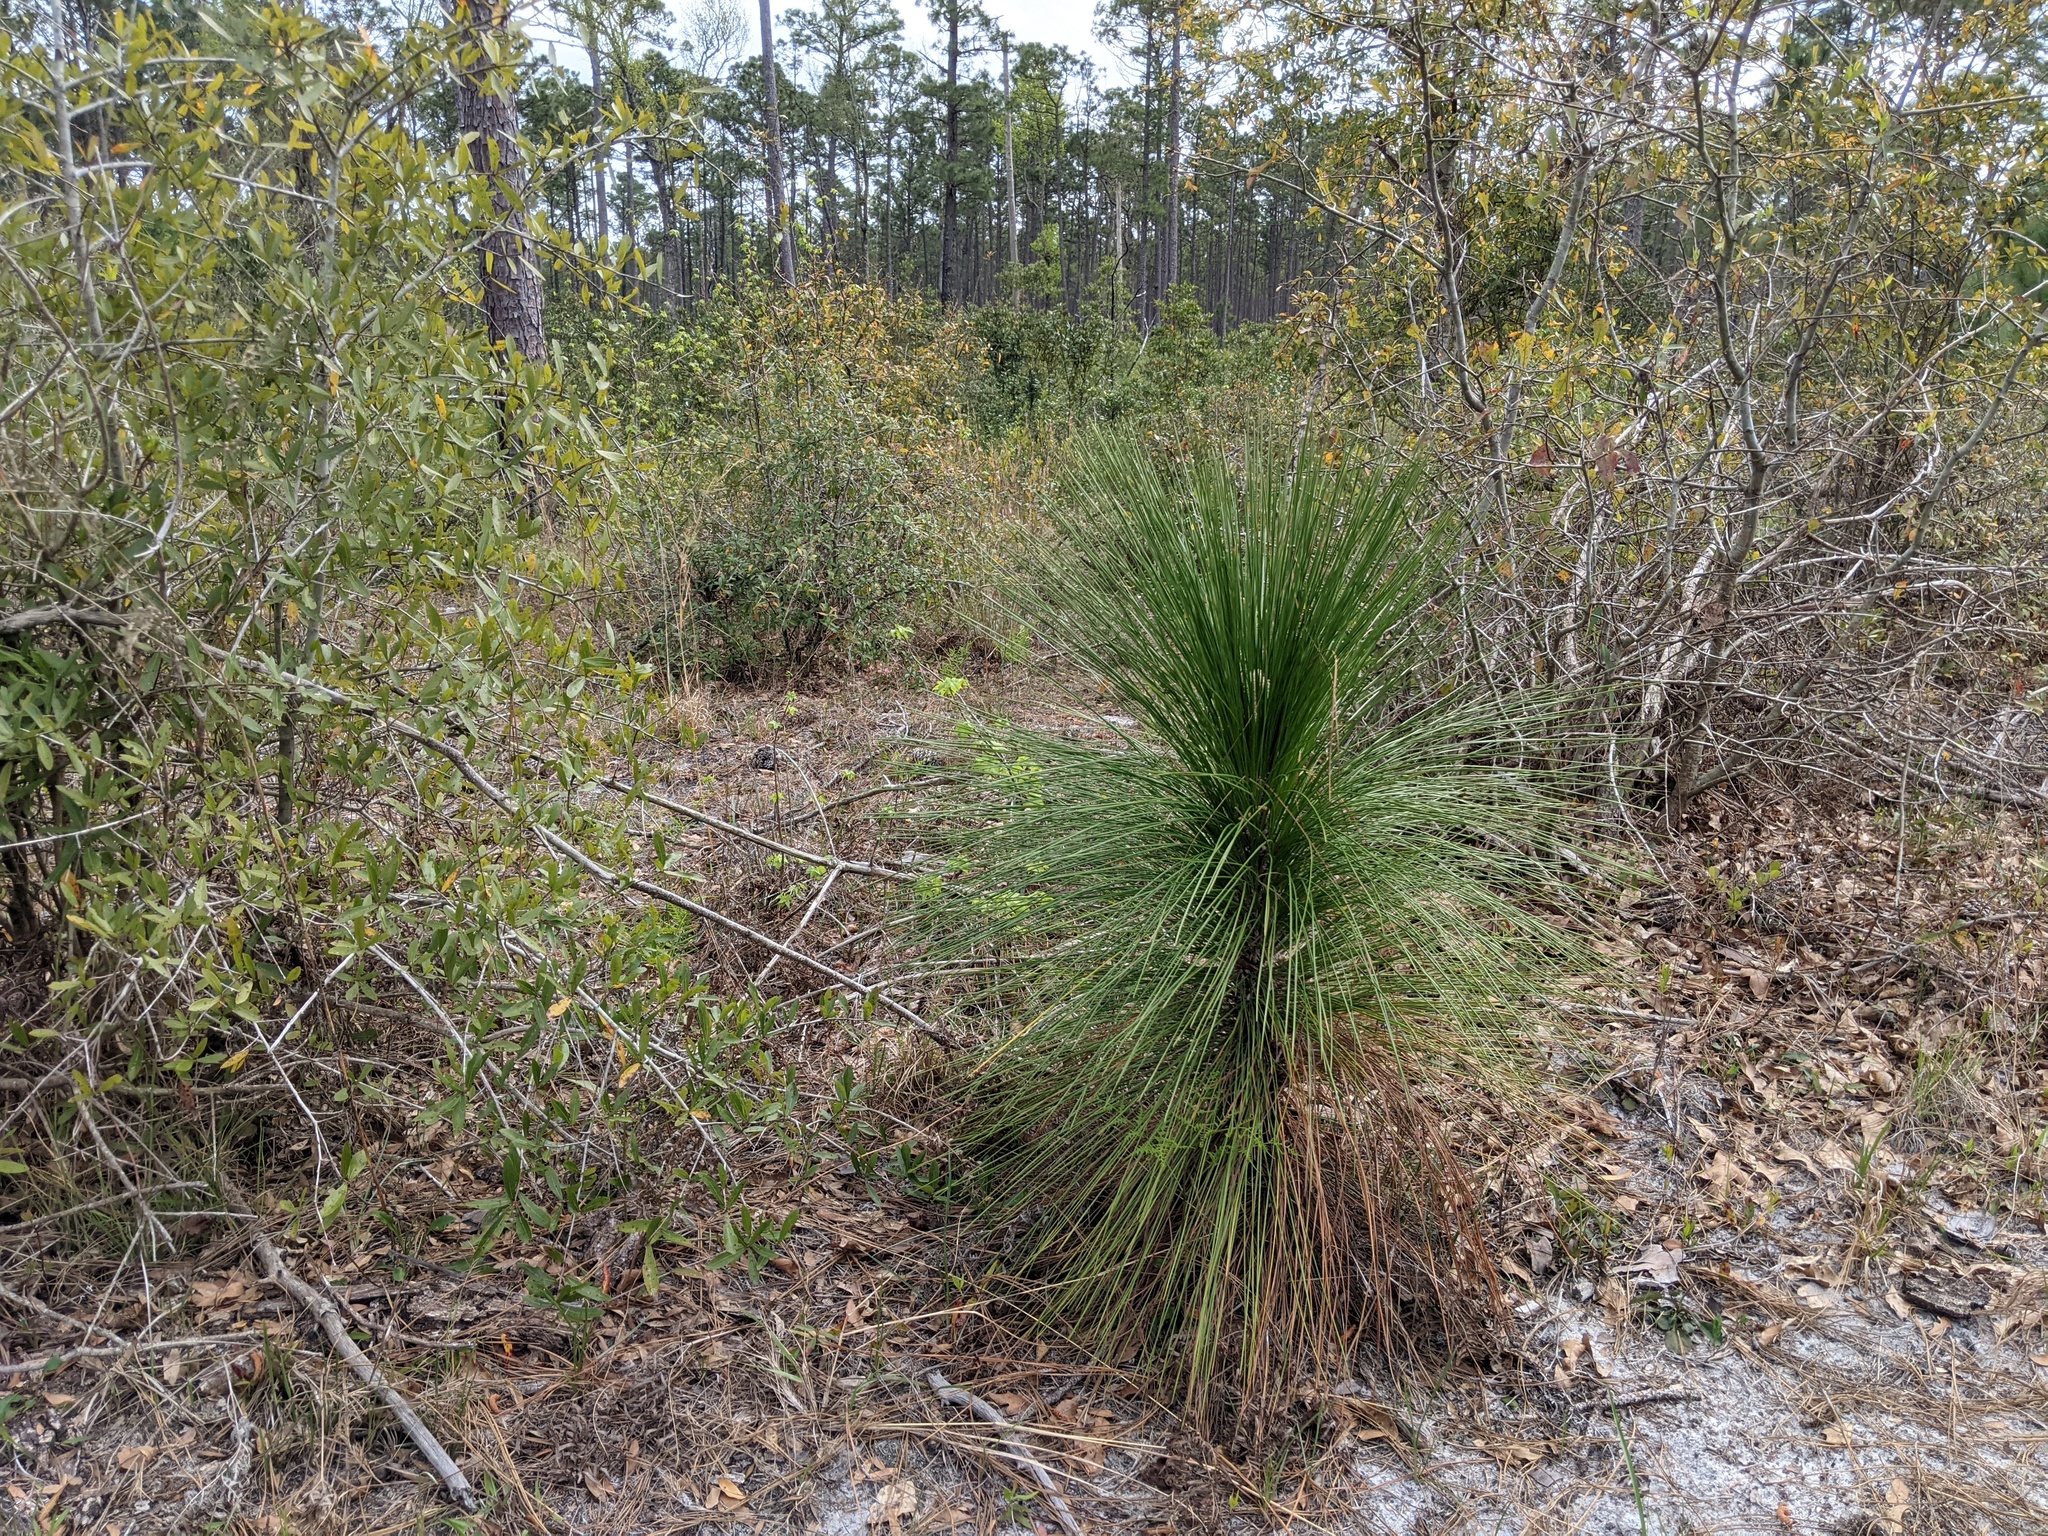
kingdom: Plantae
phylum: Tracheophyta
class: Pinopsida
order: Pinales
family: Pinaceae
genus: Pinus
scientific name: Pinus palustris
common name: Longleaf pine
